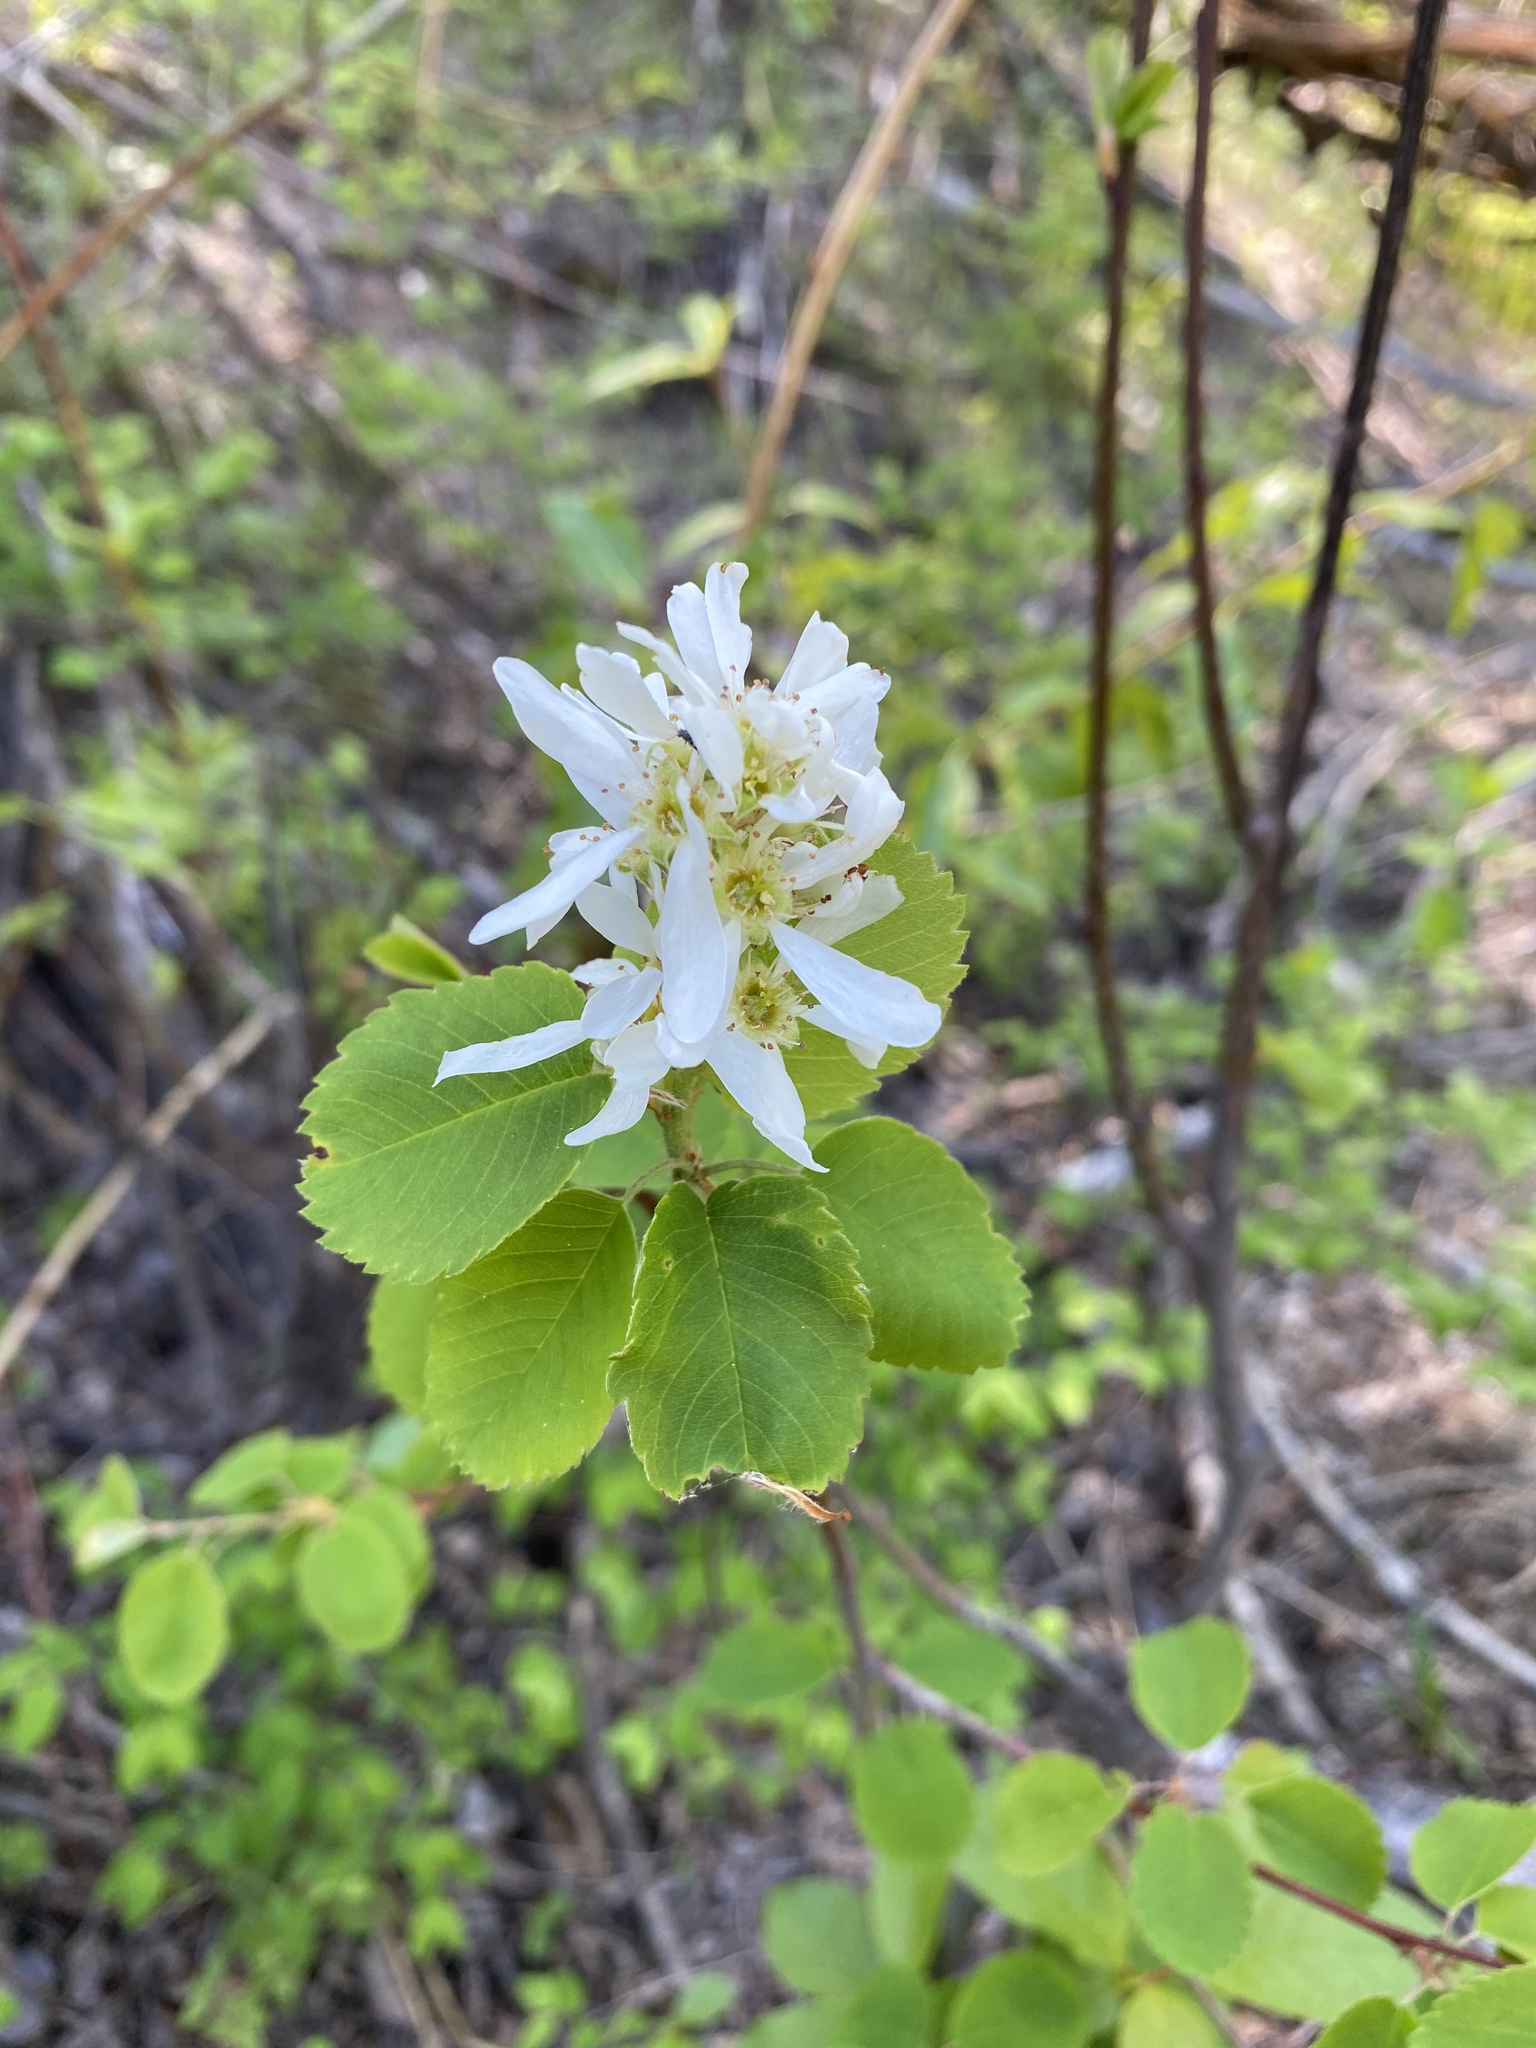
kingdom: Plantae
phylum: Tracheophyta
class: Magnoliopsida
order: Rosales
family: Rosaceae
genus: Amelanchier
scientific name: Amelanchier alnifolia
